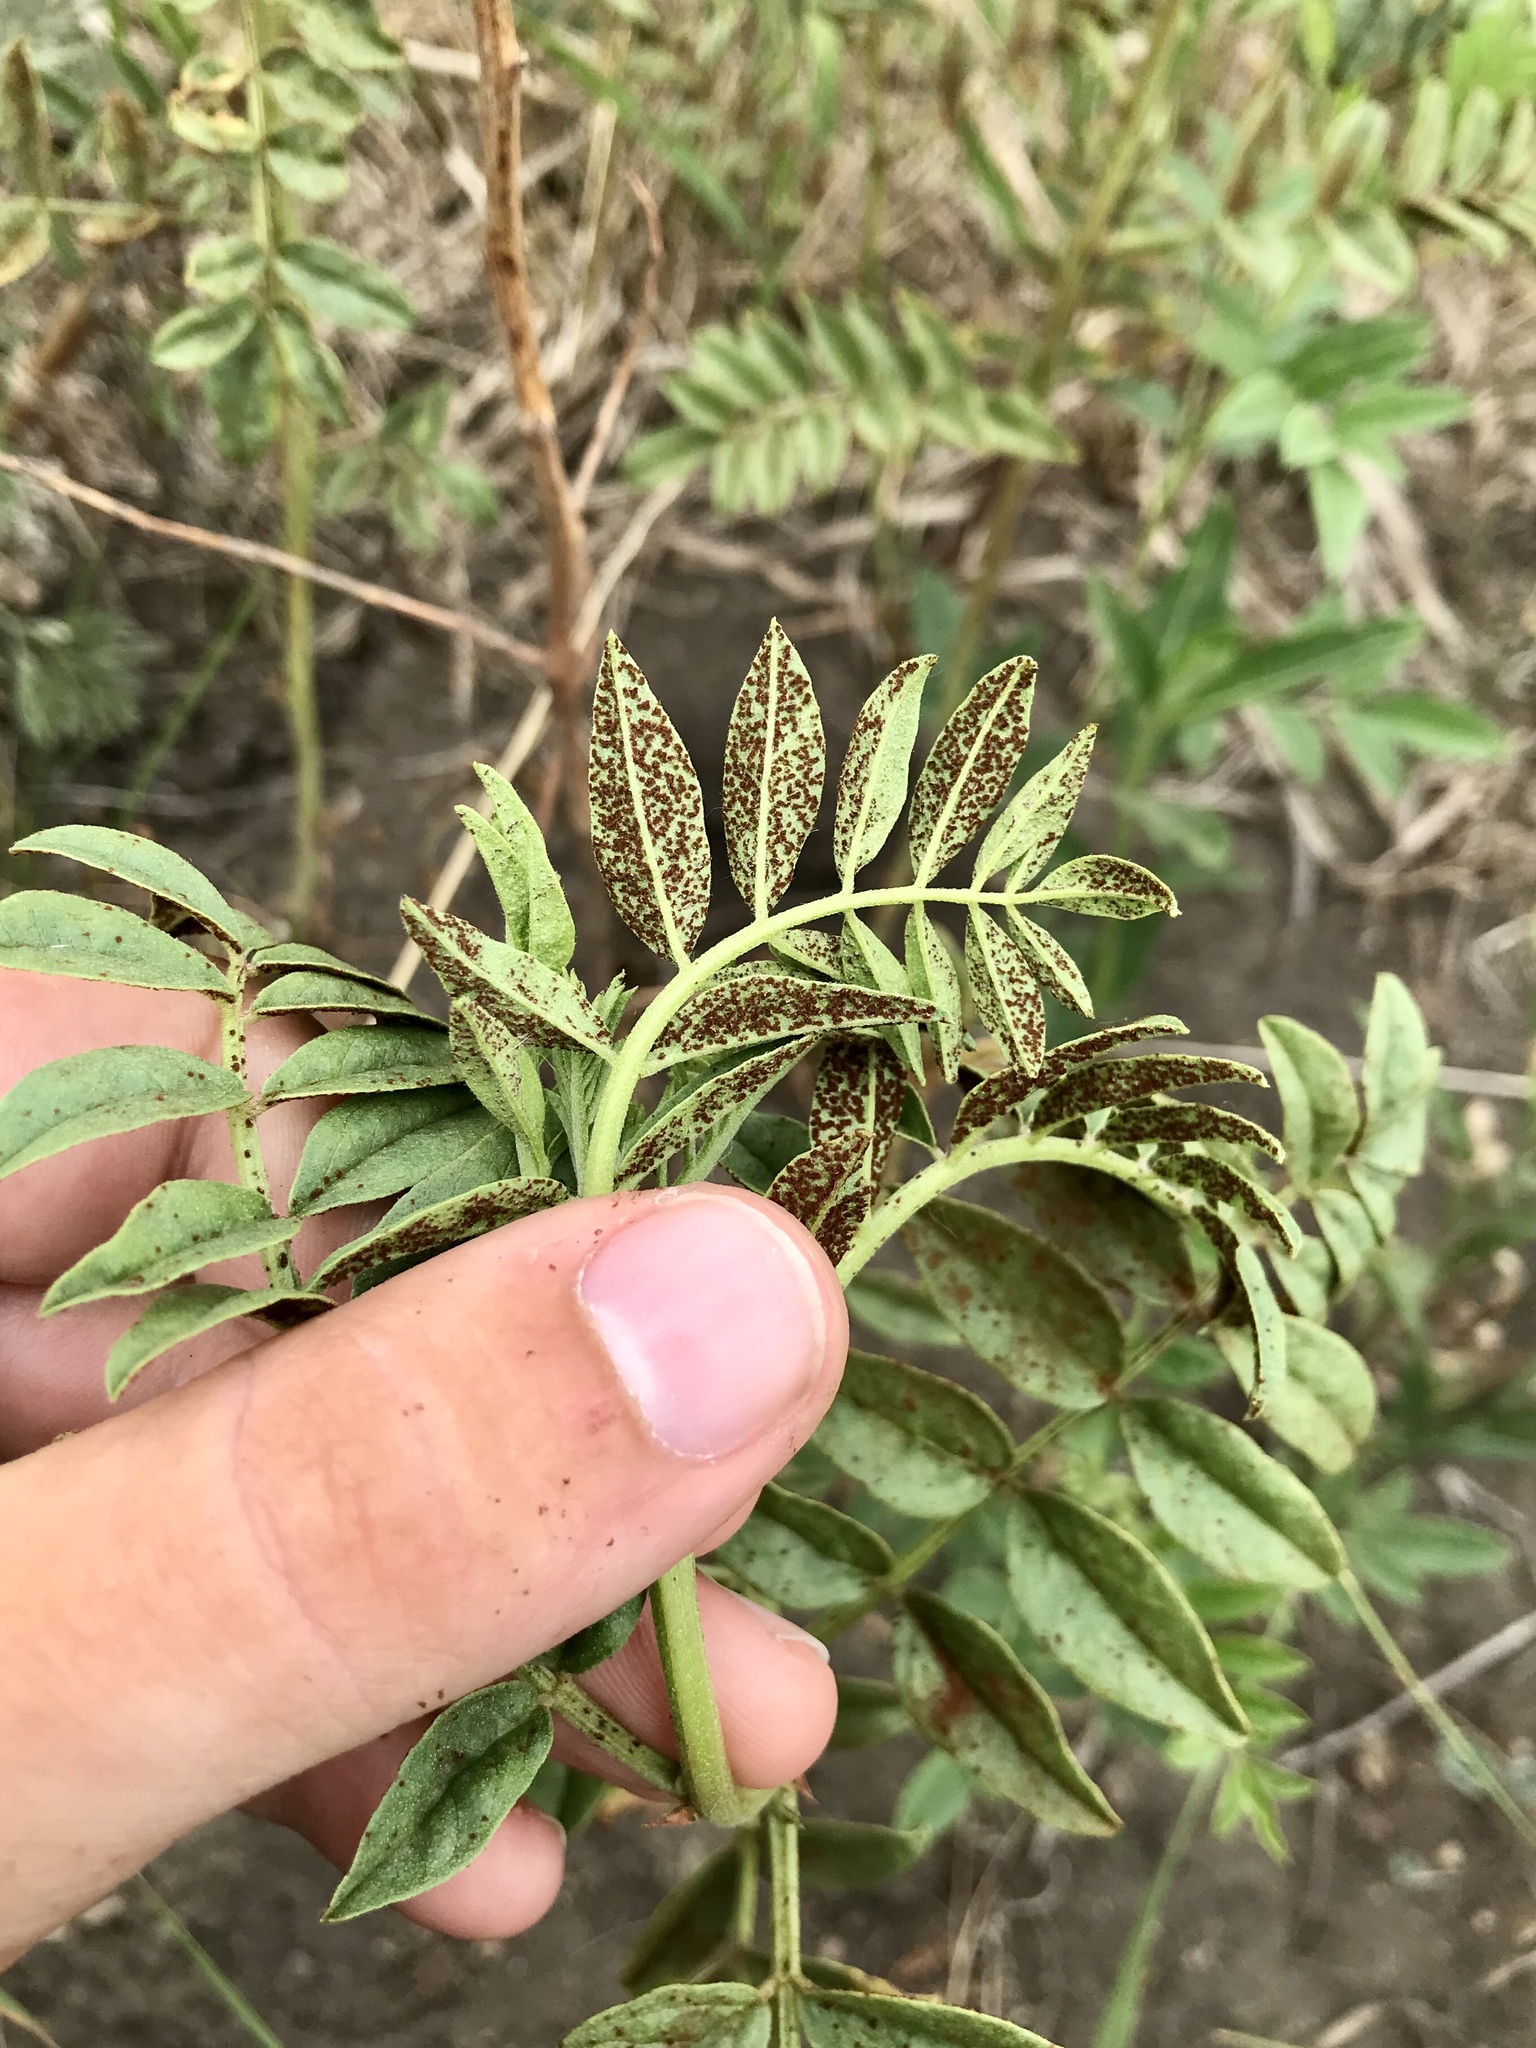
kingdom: Fungi
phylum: Basidiomycota
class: Pucciniomycetes
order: Pucciniales
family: Pucciniaceae
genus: Uromyces
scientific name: Uromyces glycyrrhizae
